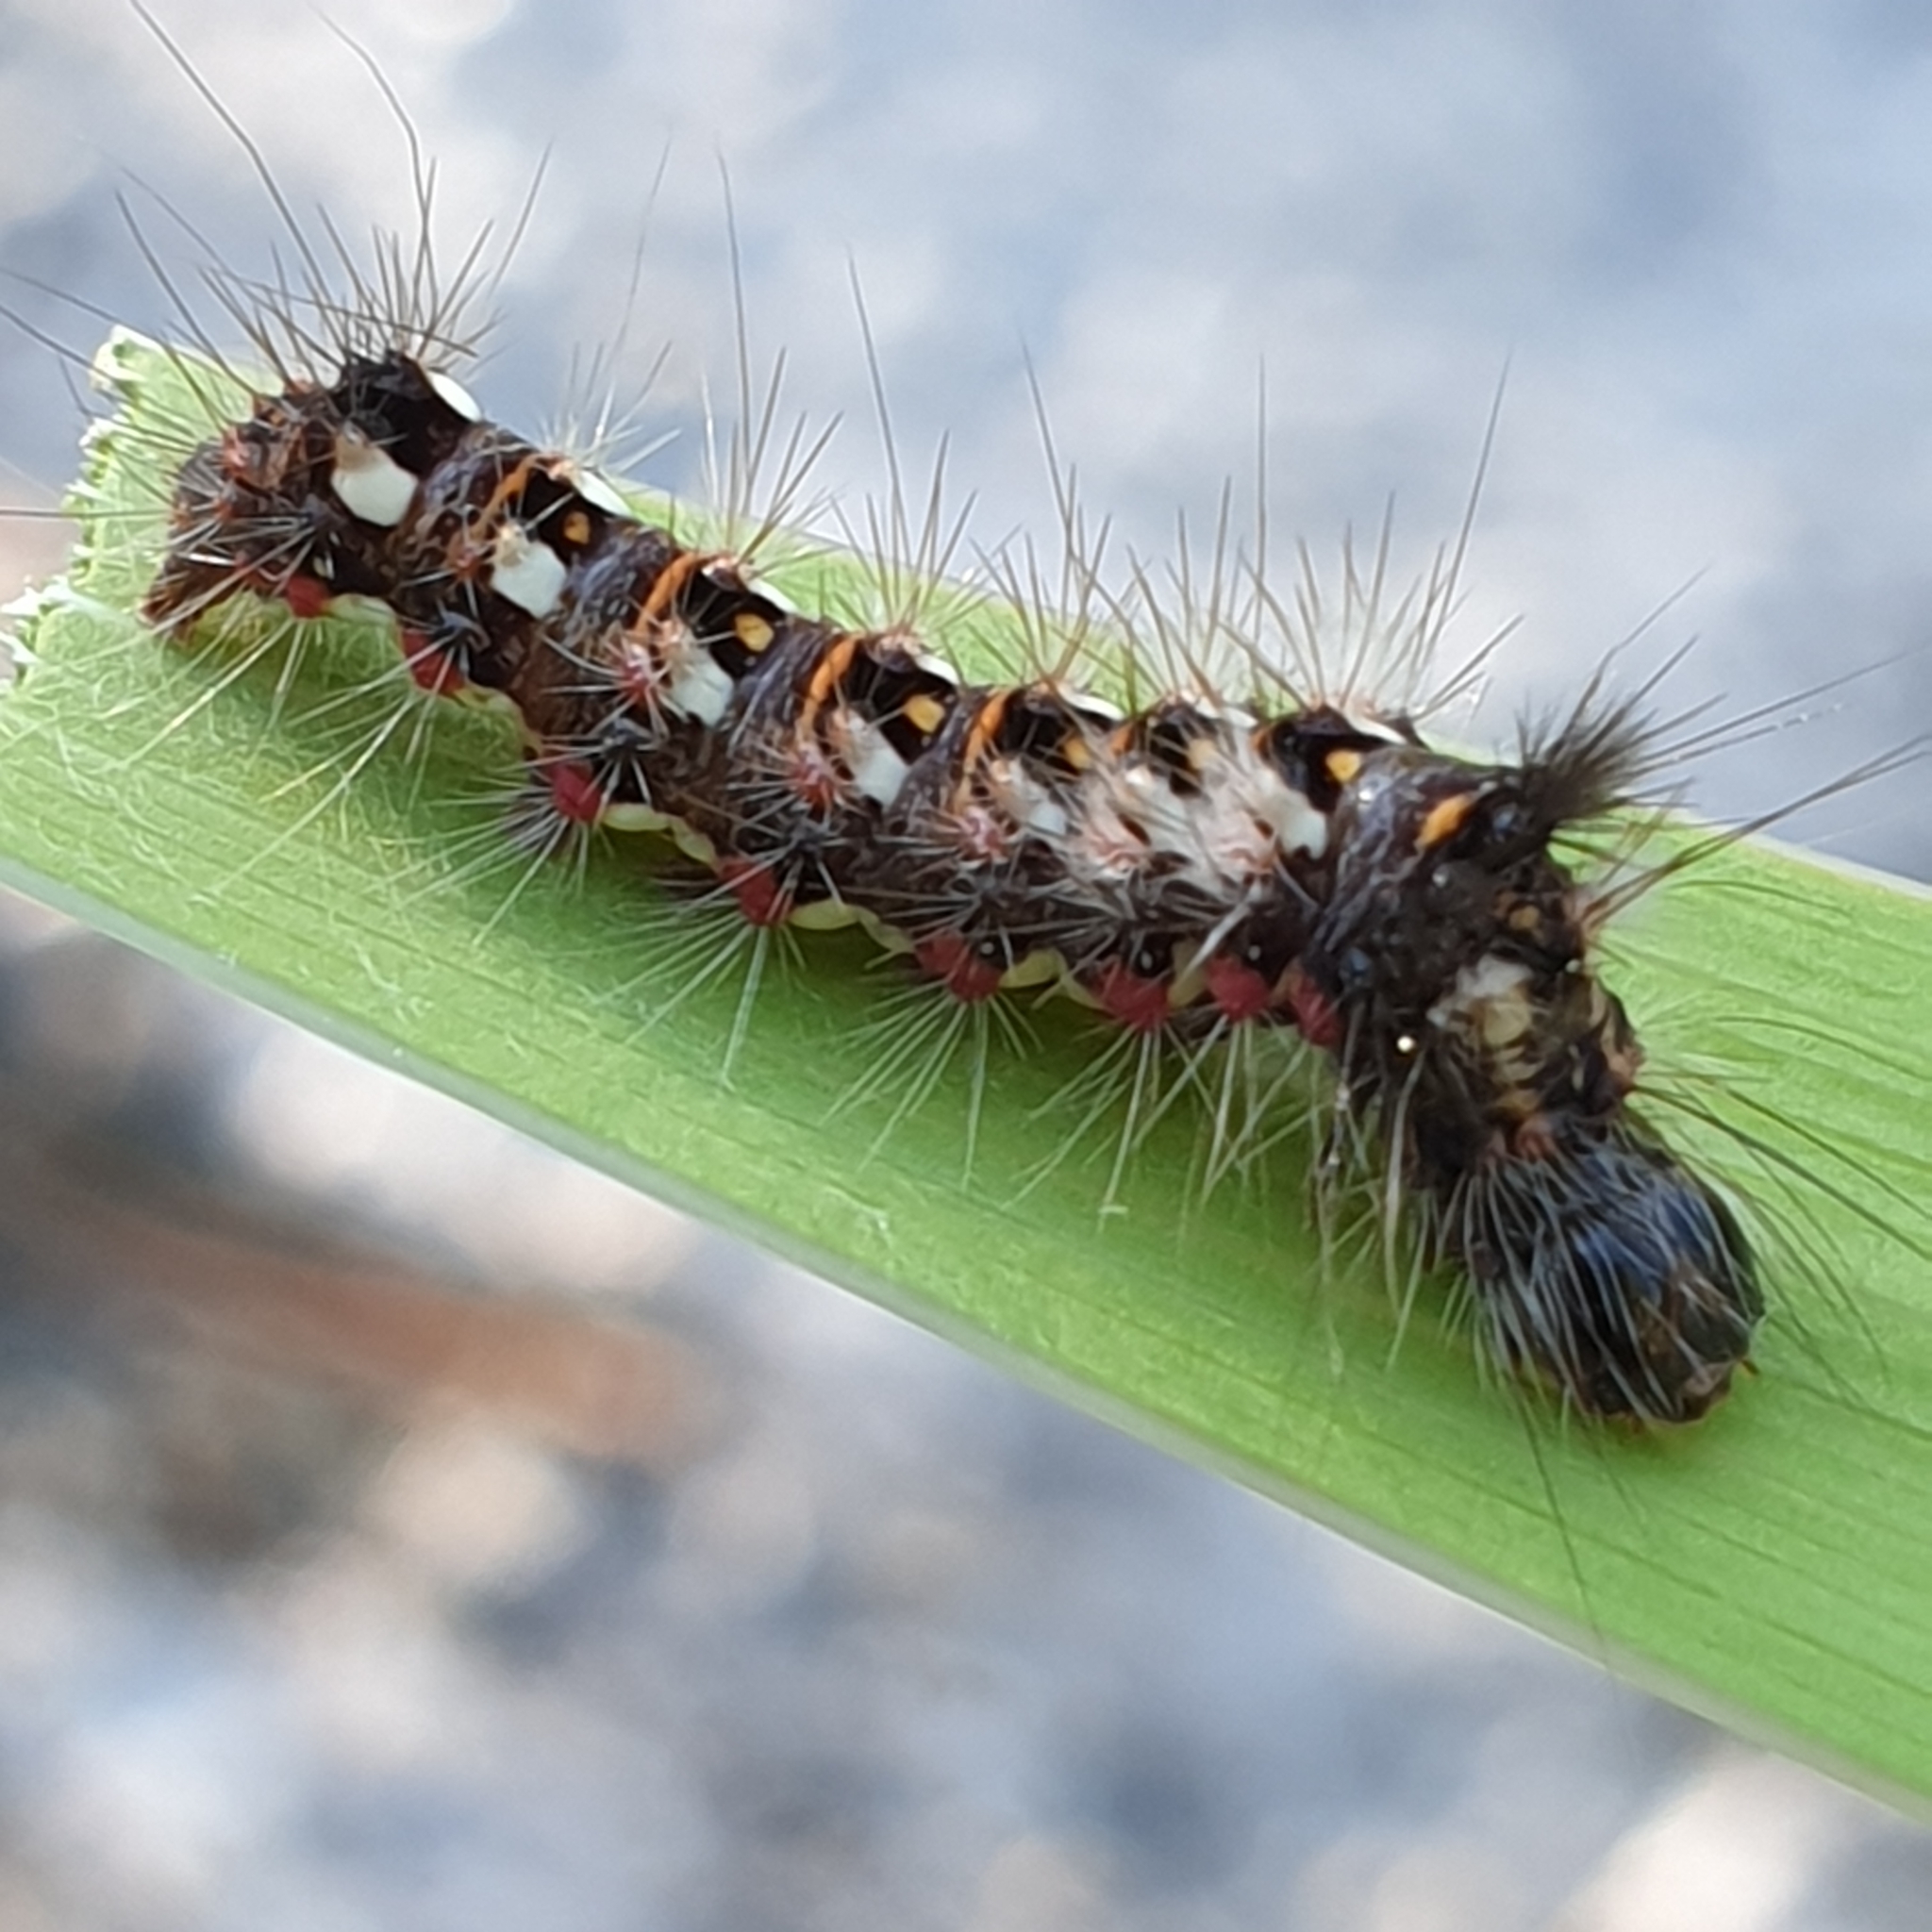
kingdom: Animalia
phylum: Arthropoda
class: Insecta
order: Lepidoptera
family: Noctuidae
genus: Acronicta
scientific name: Acronicta rumicis
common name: Knot grass
